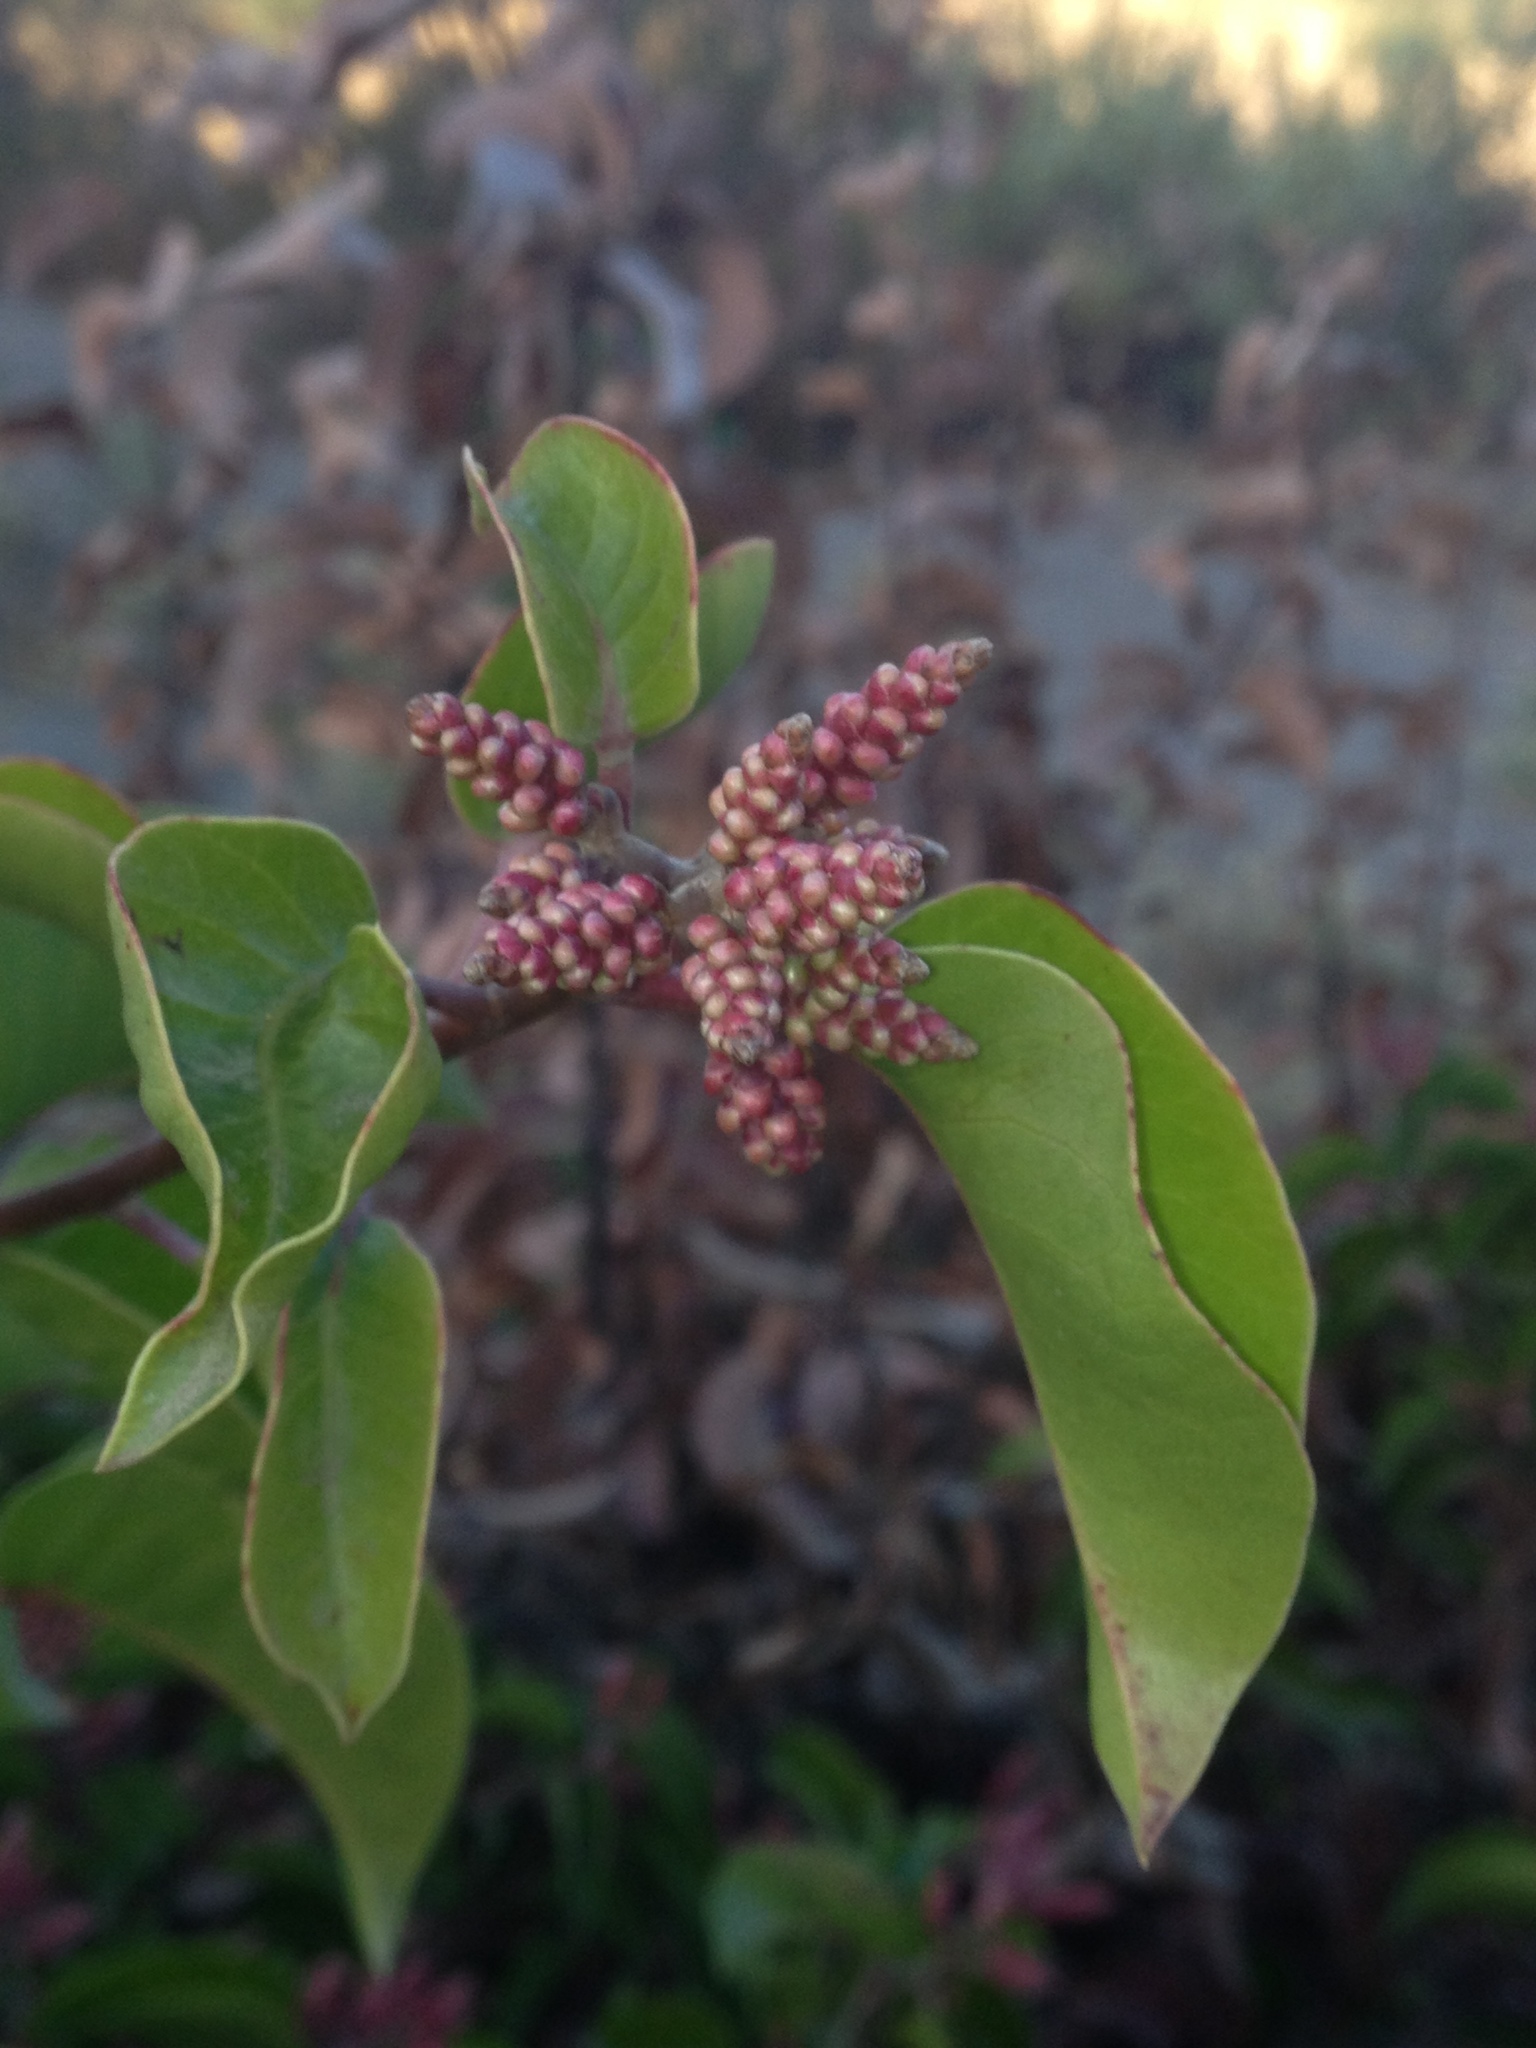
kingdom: Plantae
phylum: Tracheophyta
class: Magnoliopsida
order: Sapindales
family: Anacardiaceae
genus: Rhus
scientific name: Rhus ovata
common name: Sugar sumac
